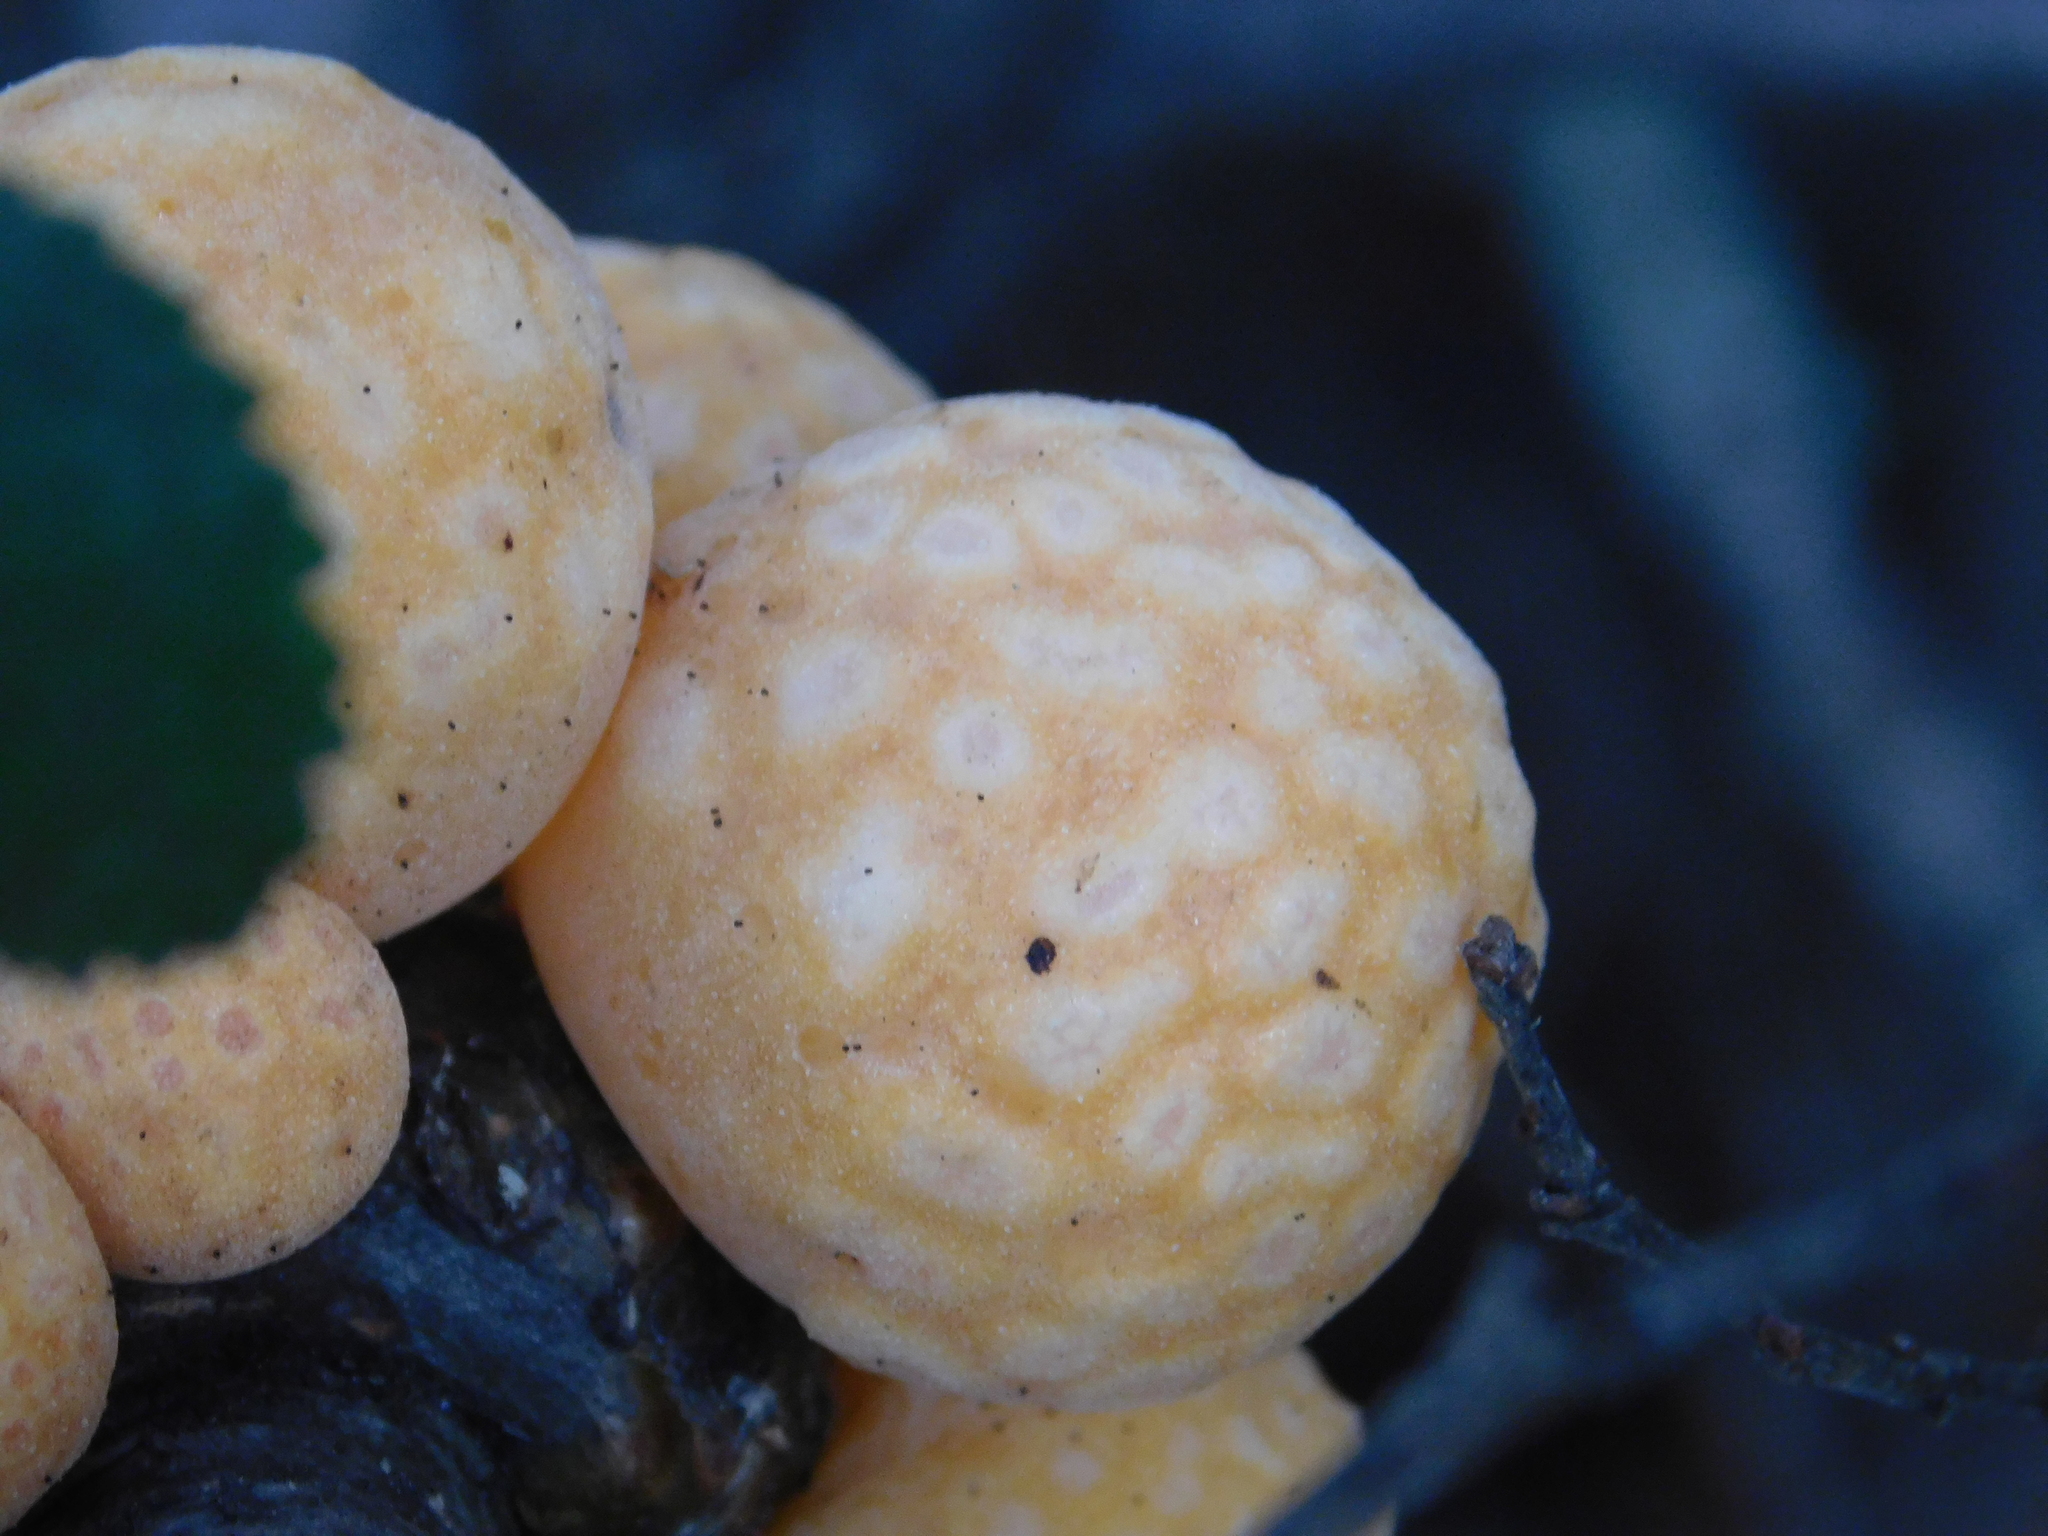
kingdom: Fungi
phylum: Ascomycota
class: Leotiomycetes
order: Cyttariales
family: Cyttariaceae
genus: Cyttaria
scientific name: Cyttaria hariotii
